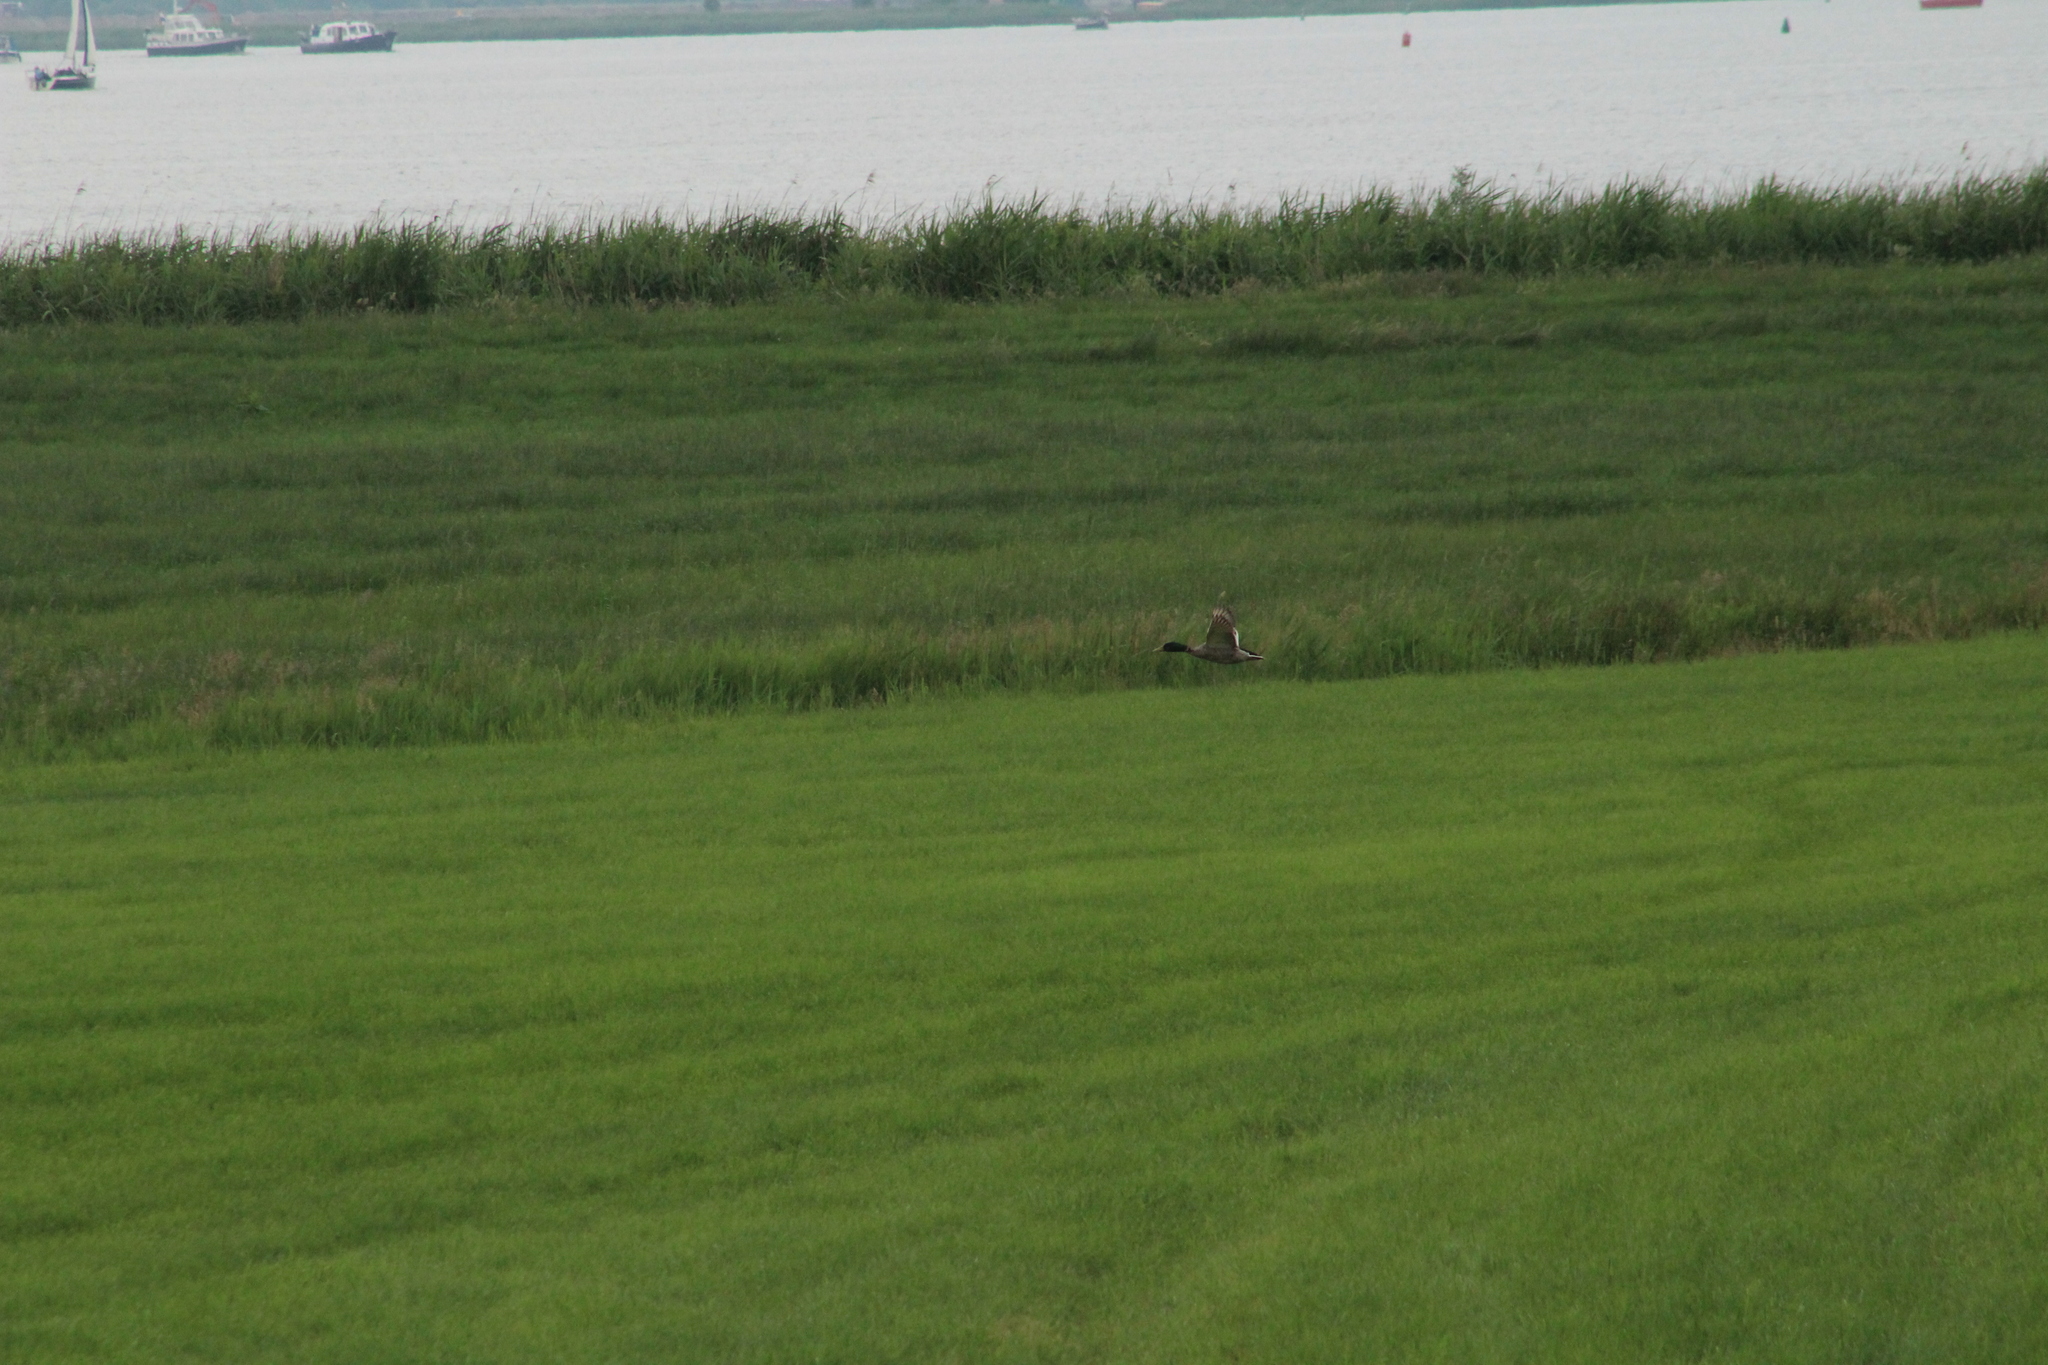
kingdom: Animalia
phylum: Chordata
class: Aves
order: Anseriformes
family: Anatidae
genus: Anas
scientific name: Anas platyrhynchos
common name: Mallard
